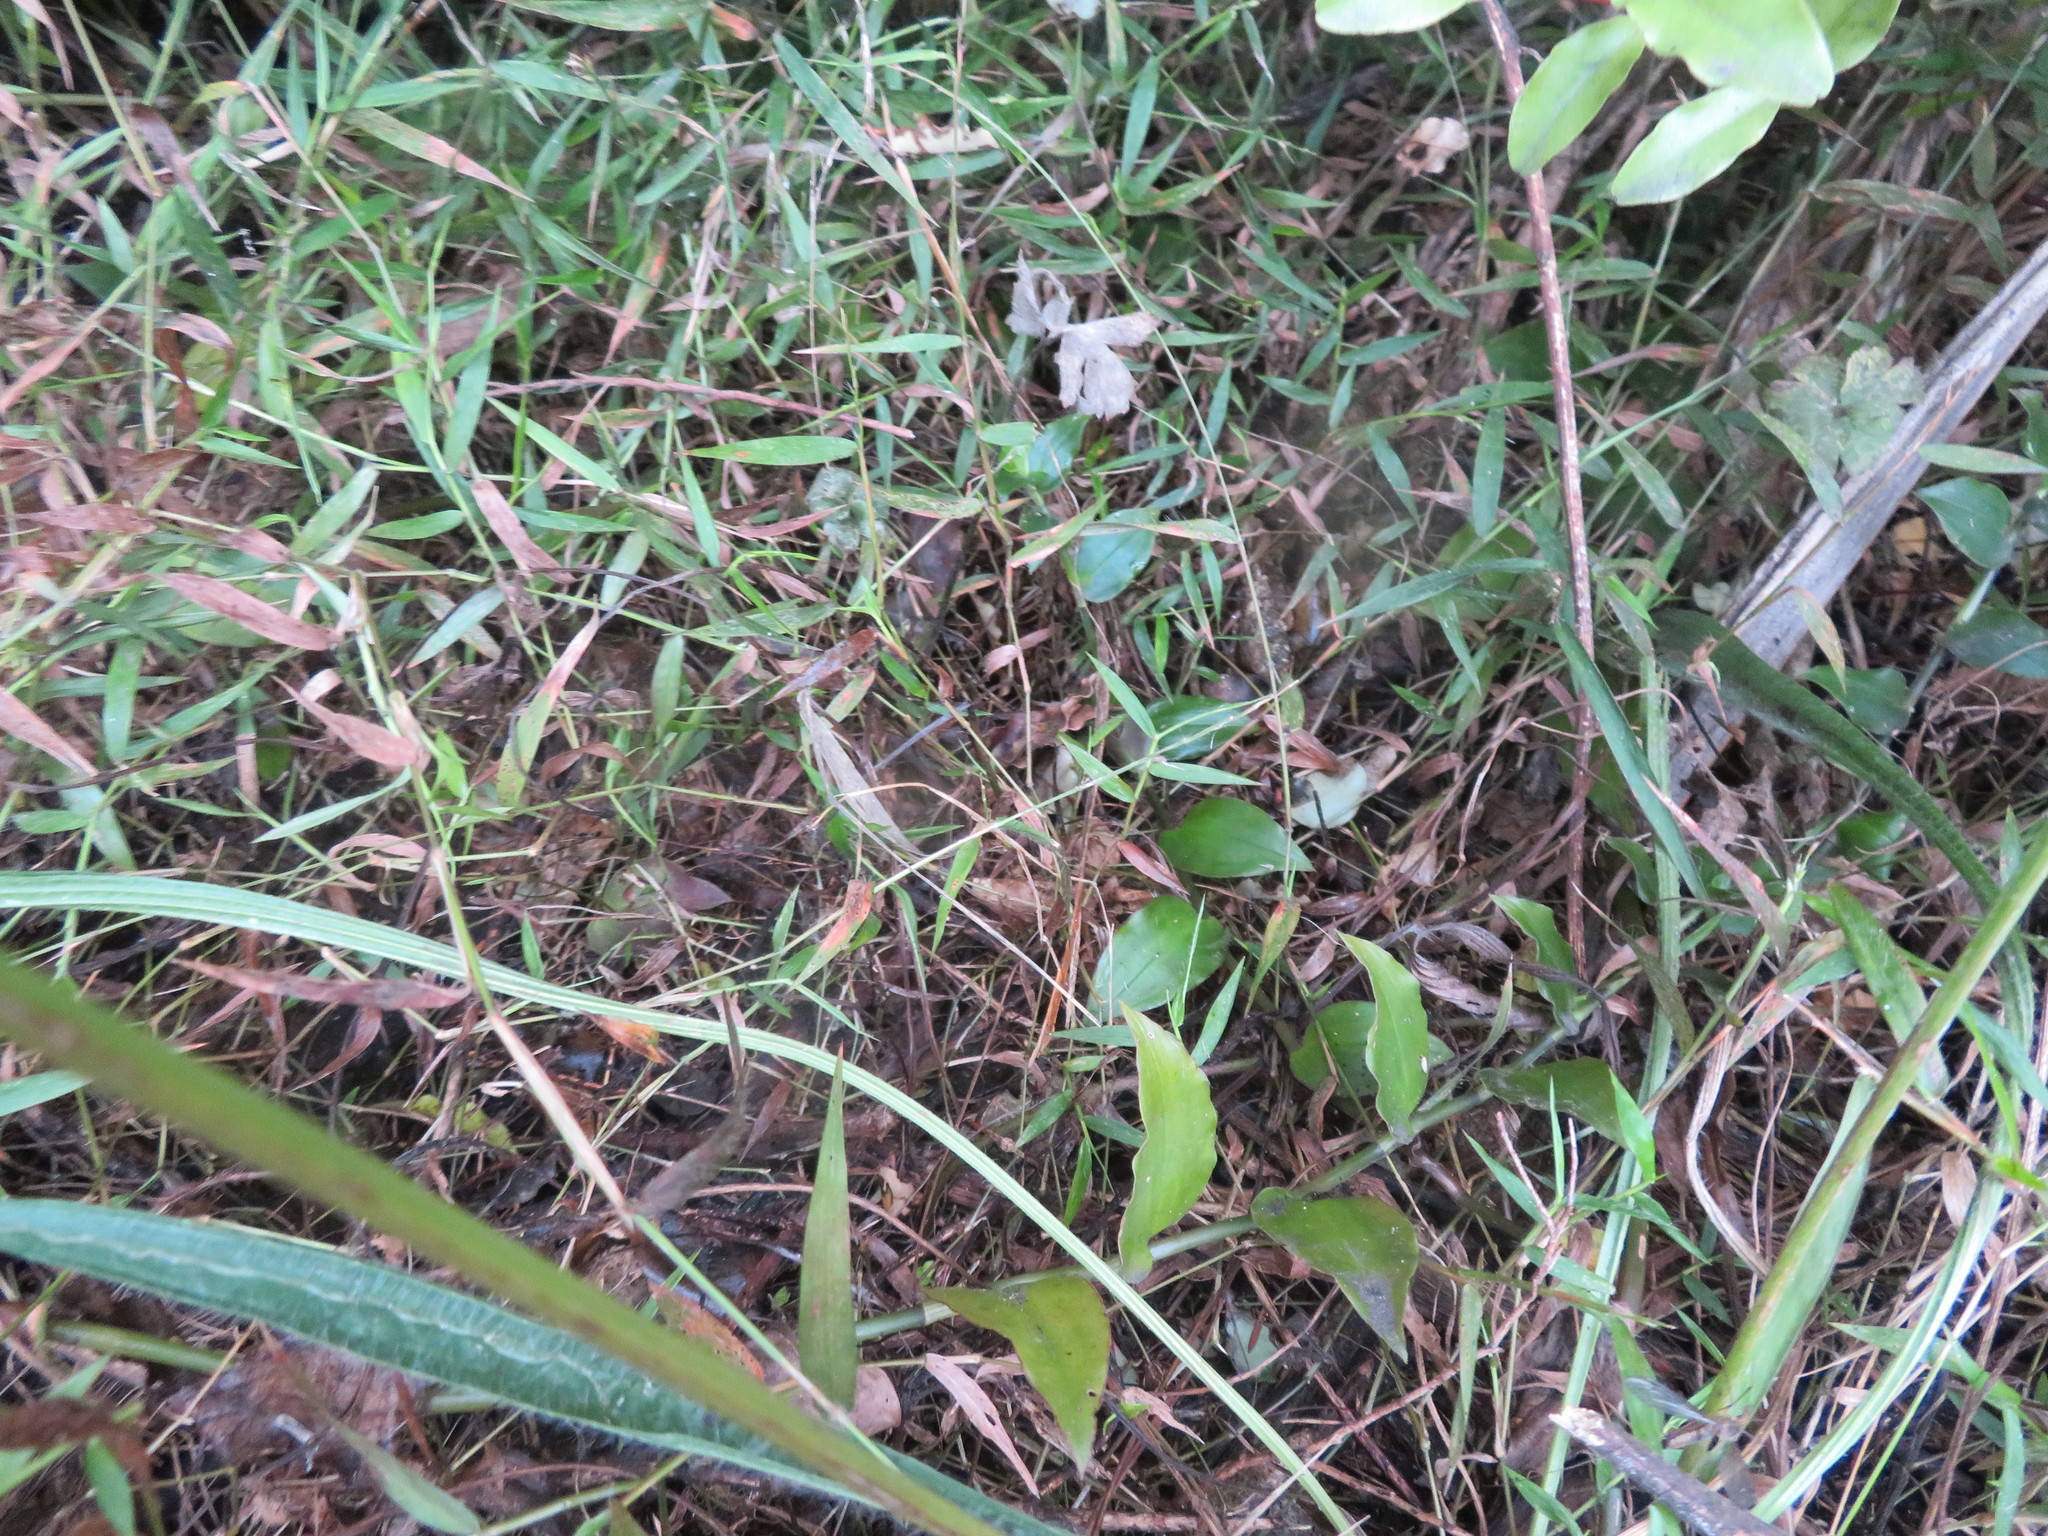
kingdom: Plantae
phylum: Tracheophyta
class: Liliopsida
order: Commelinales
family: Commelinaceae
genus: Tradescantia
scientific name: Tradescantia fluminensis
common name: Wandering-jew
